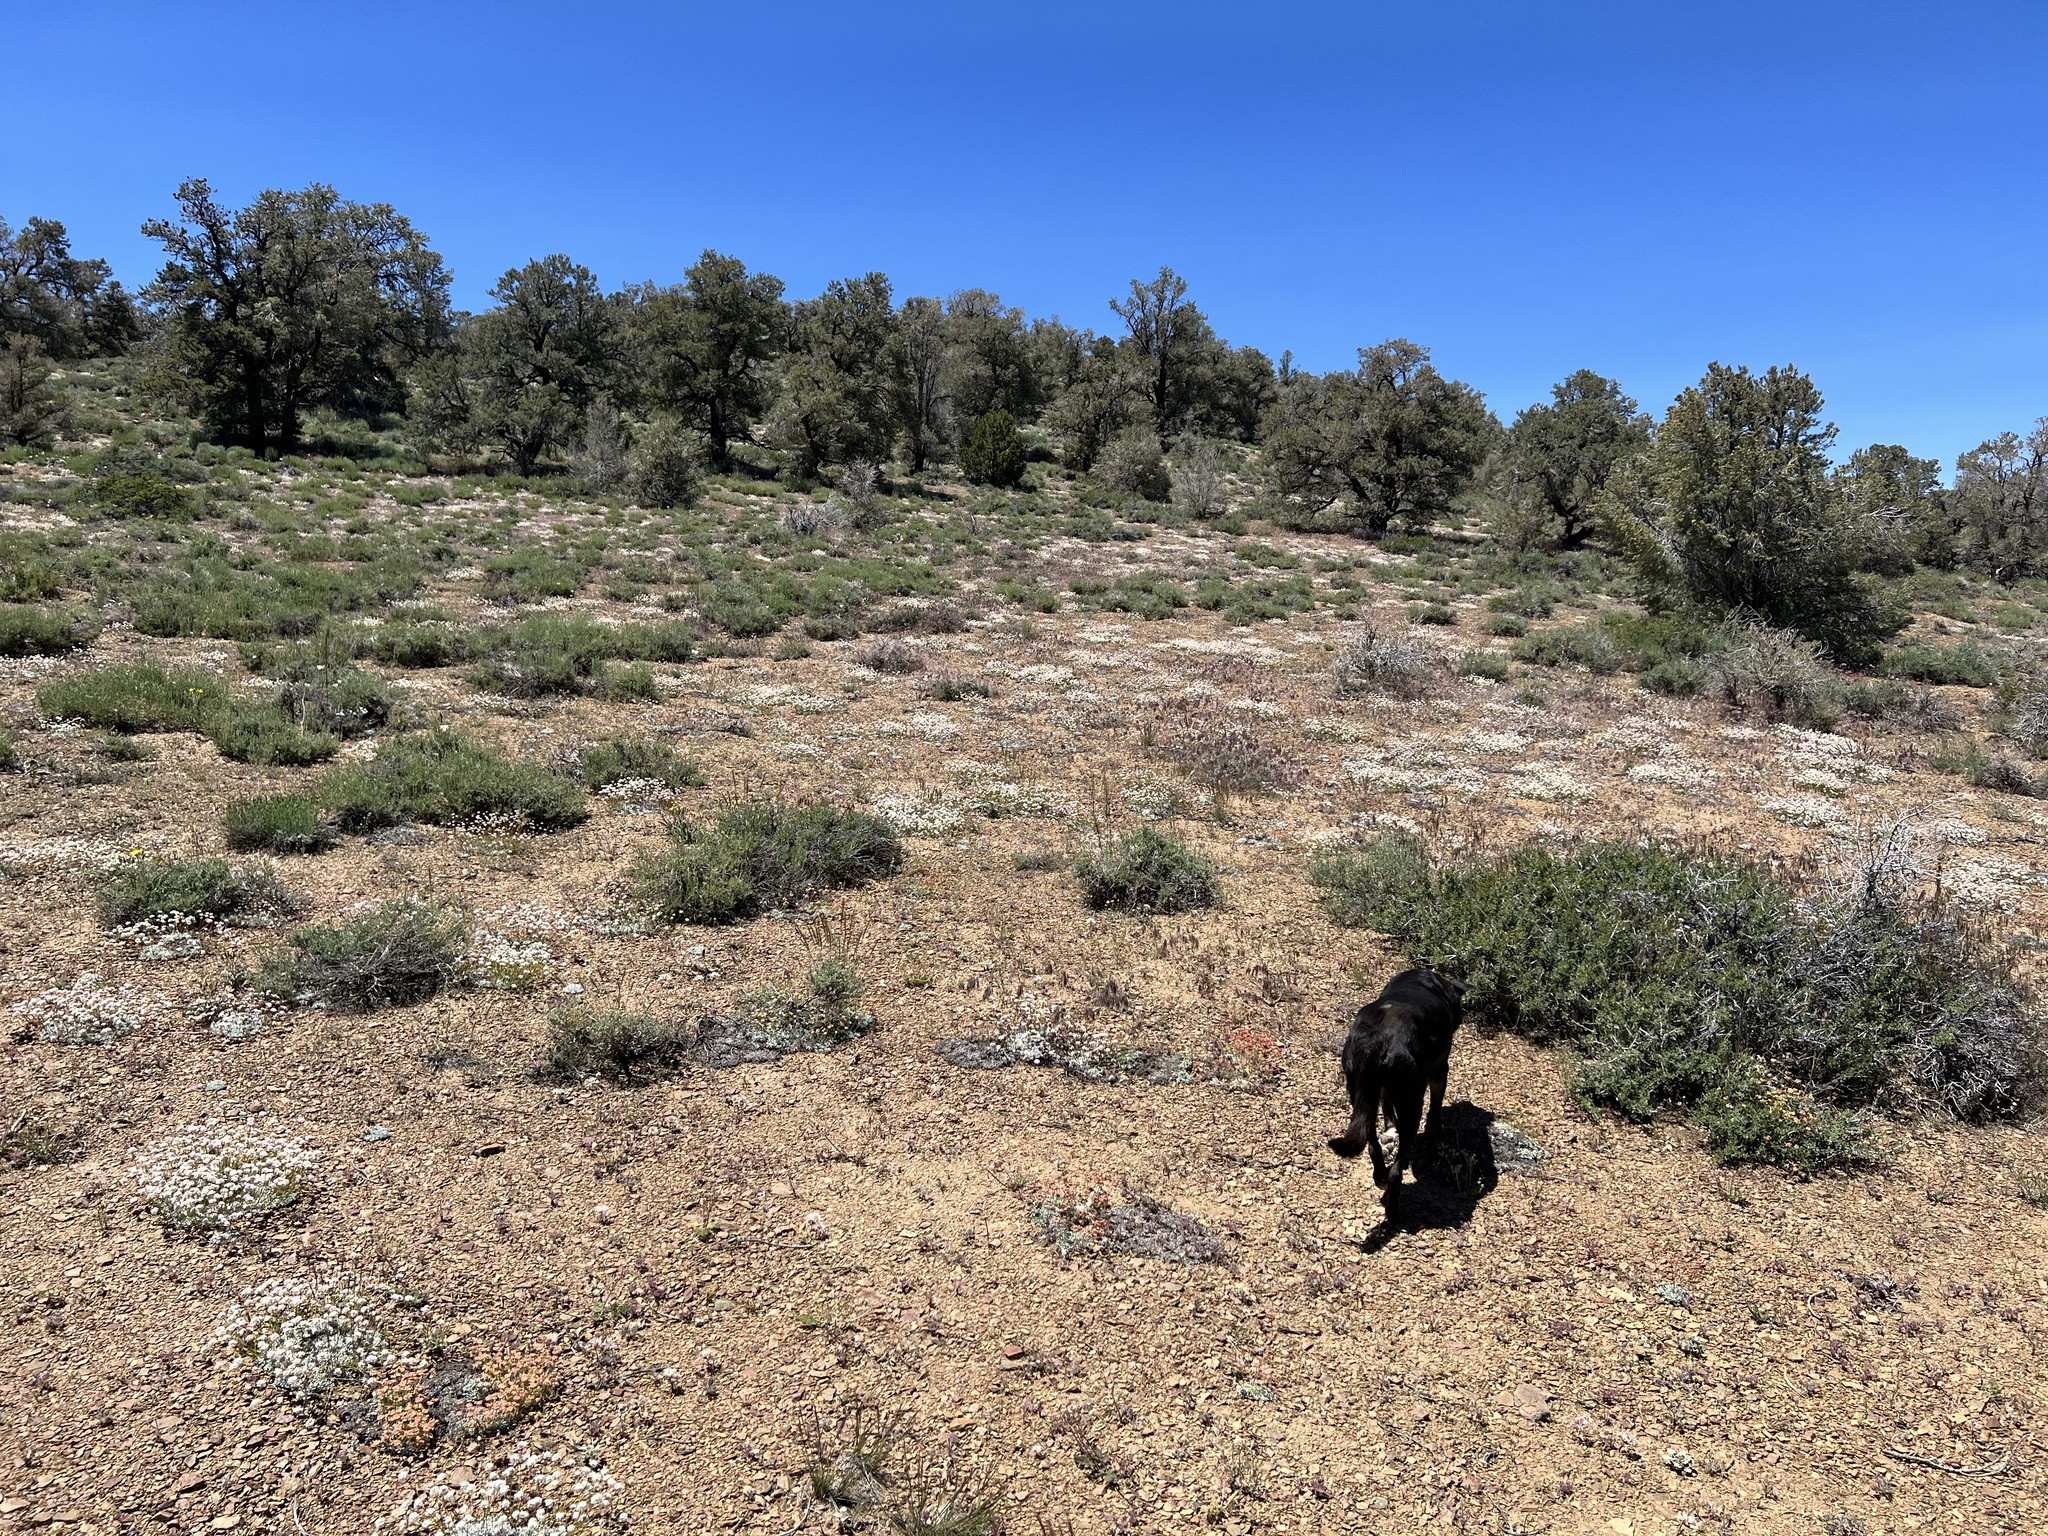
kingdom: Plantae
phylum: Tracheophyta
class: Magnoliopsida
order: Caryophyllales
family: Polygonaceae
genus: Eriogonum
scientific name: Eriogonum kennedyi
